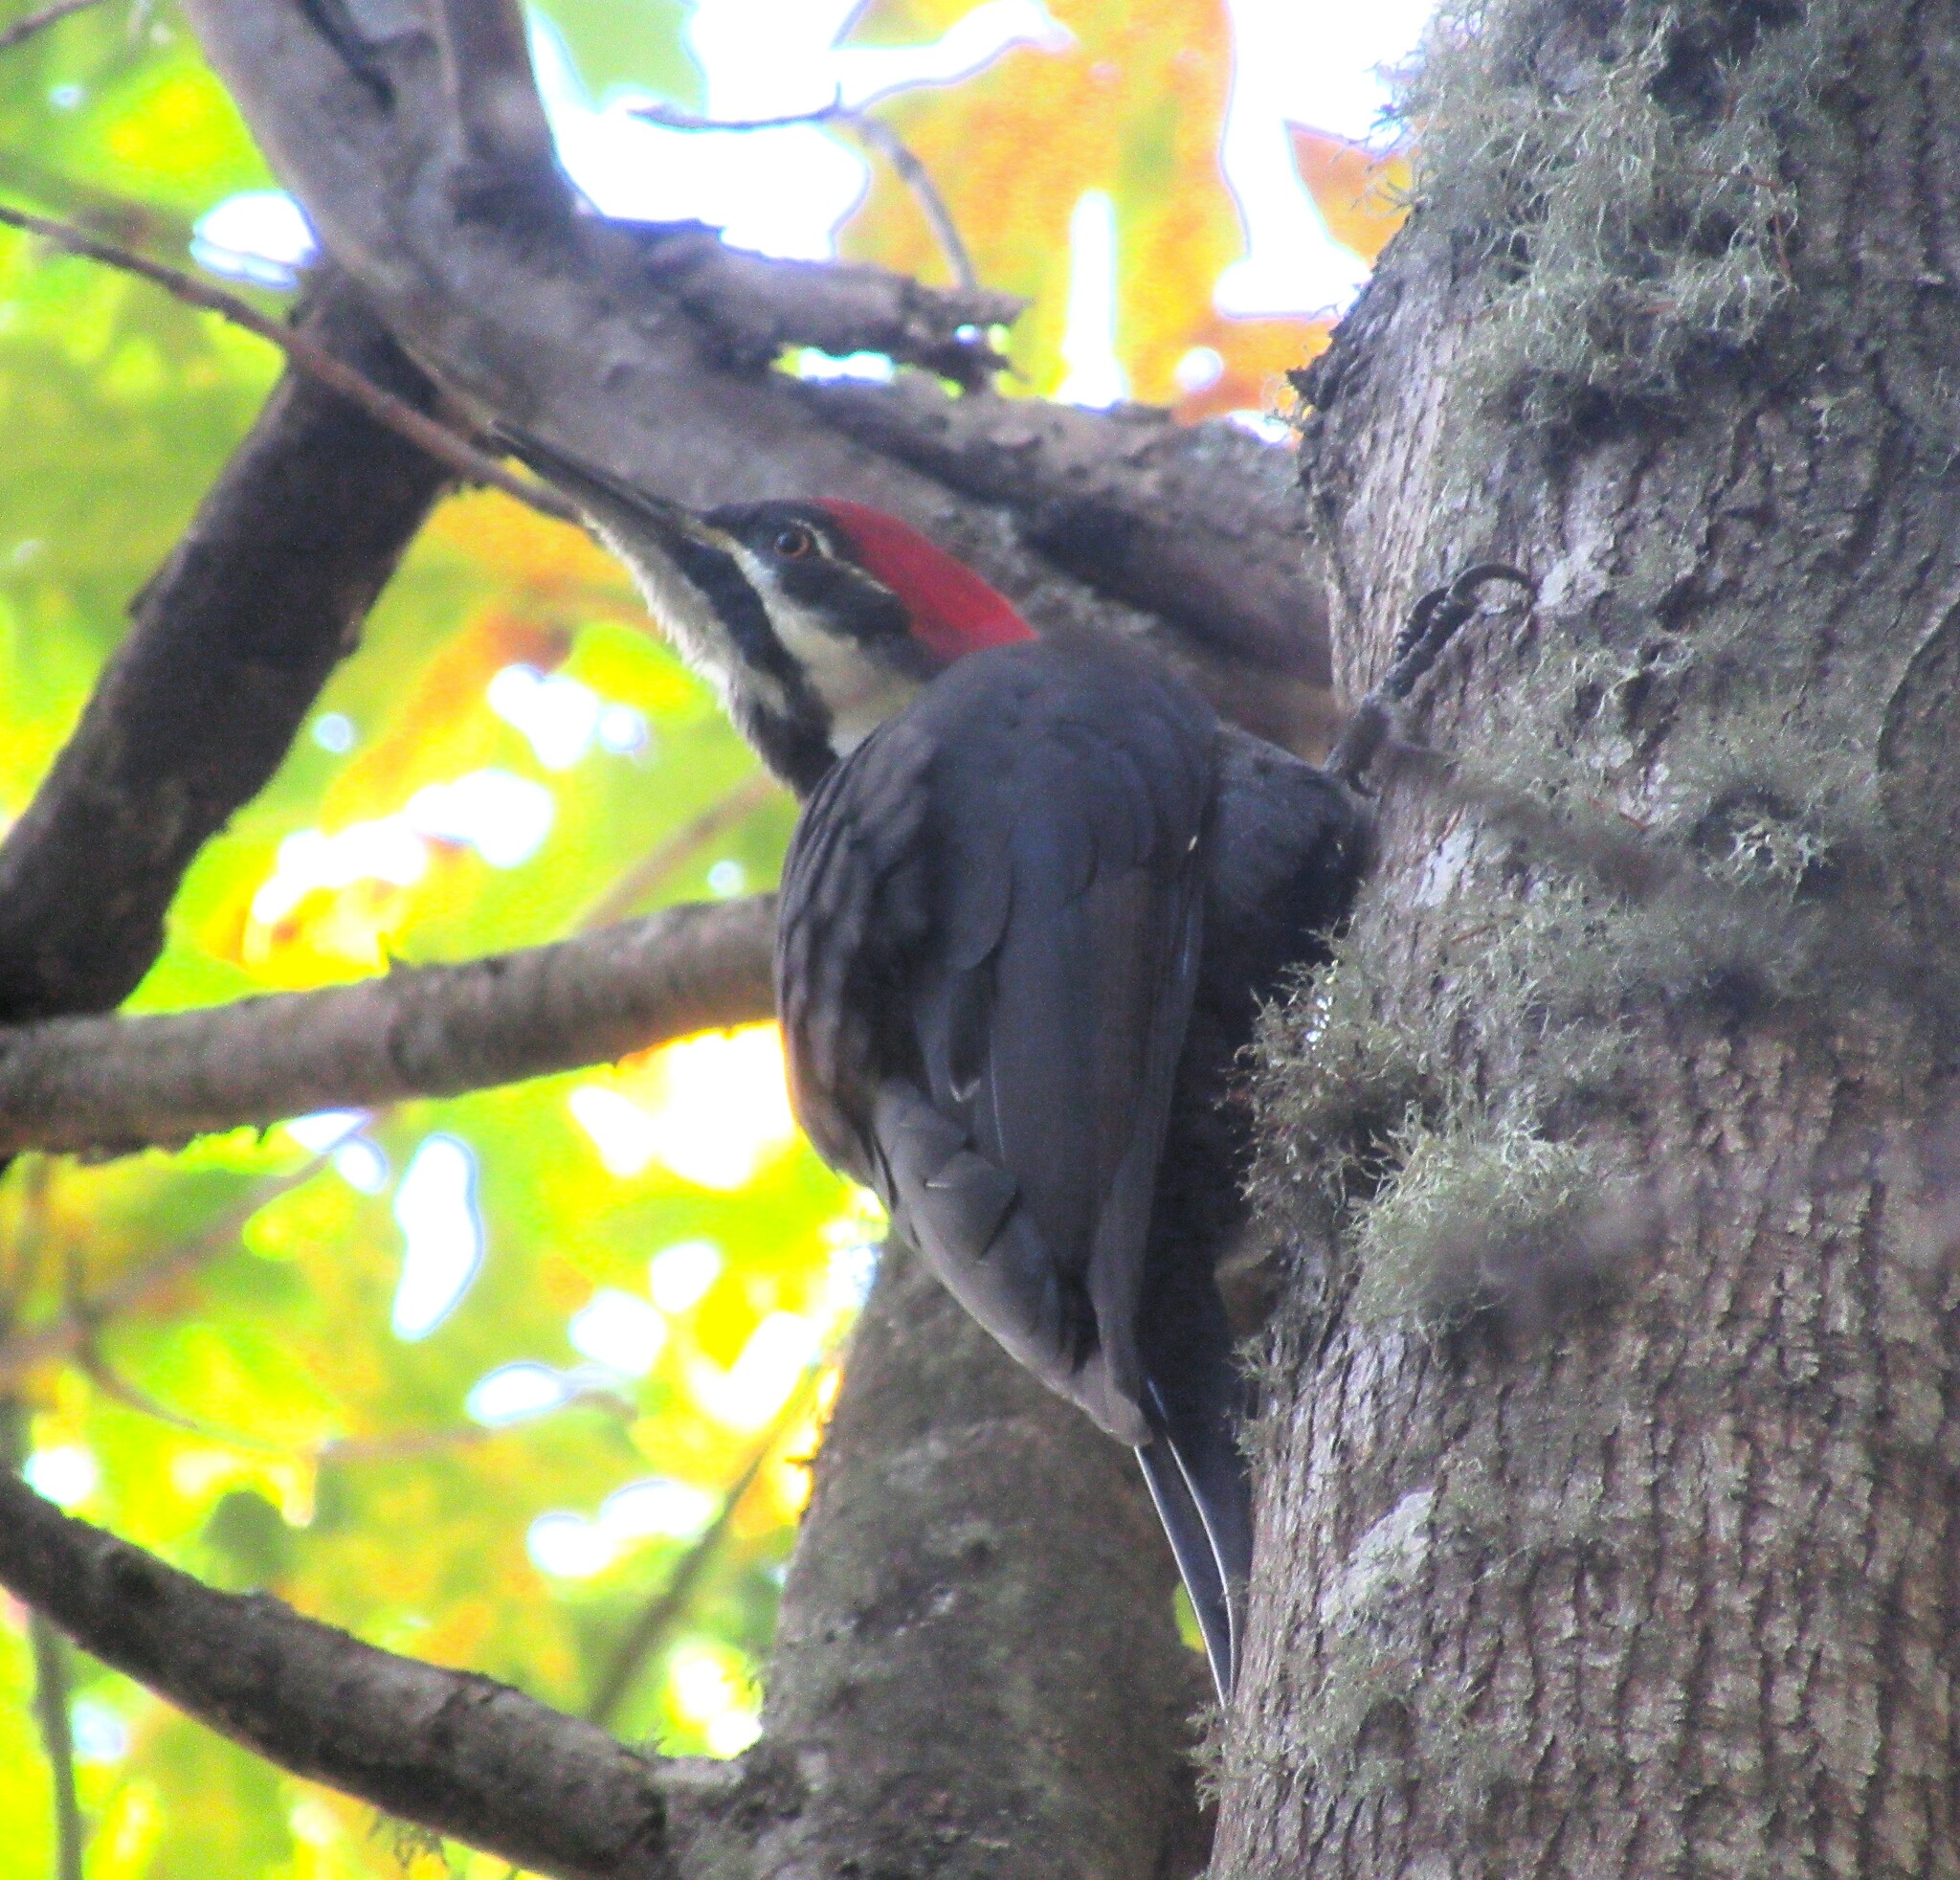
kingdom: Animalia
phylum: Chordata
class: Aves
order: Piciformes
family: Picidae
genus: Dryocopus
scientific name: Dryocopus pileatus
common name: Pileated woodpecker
